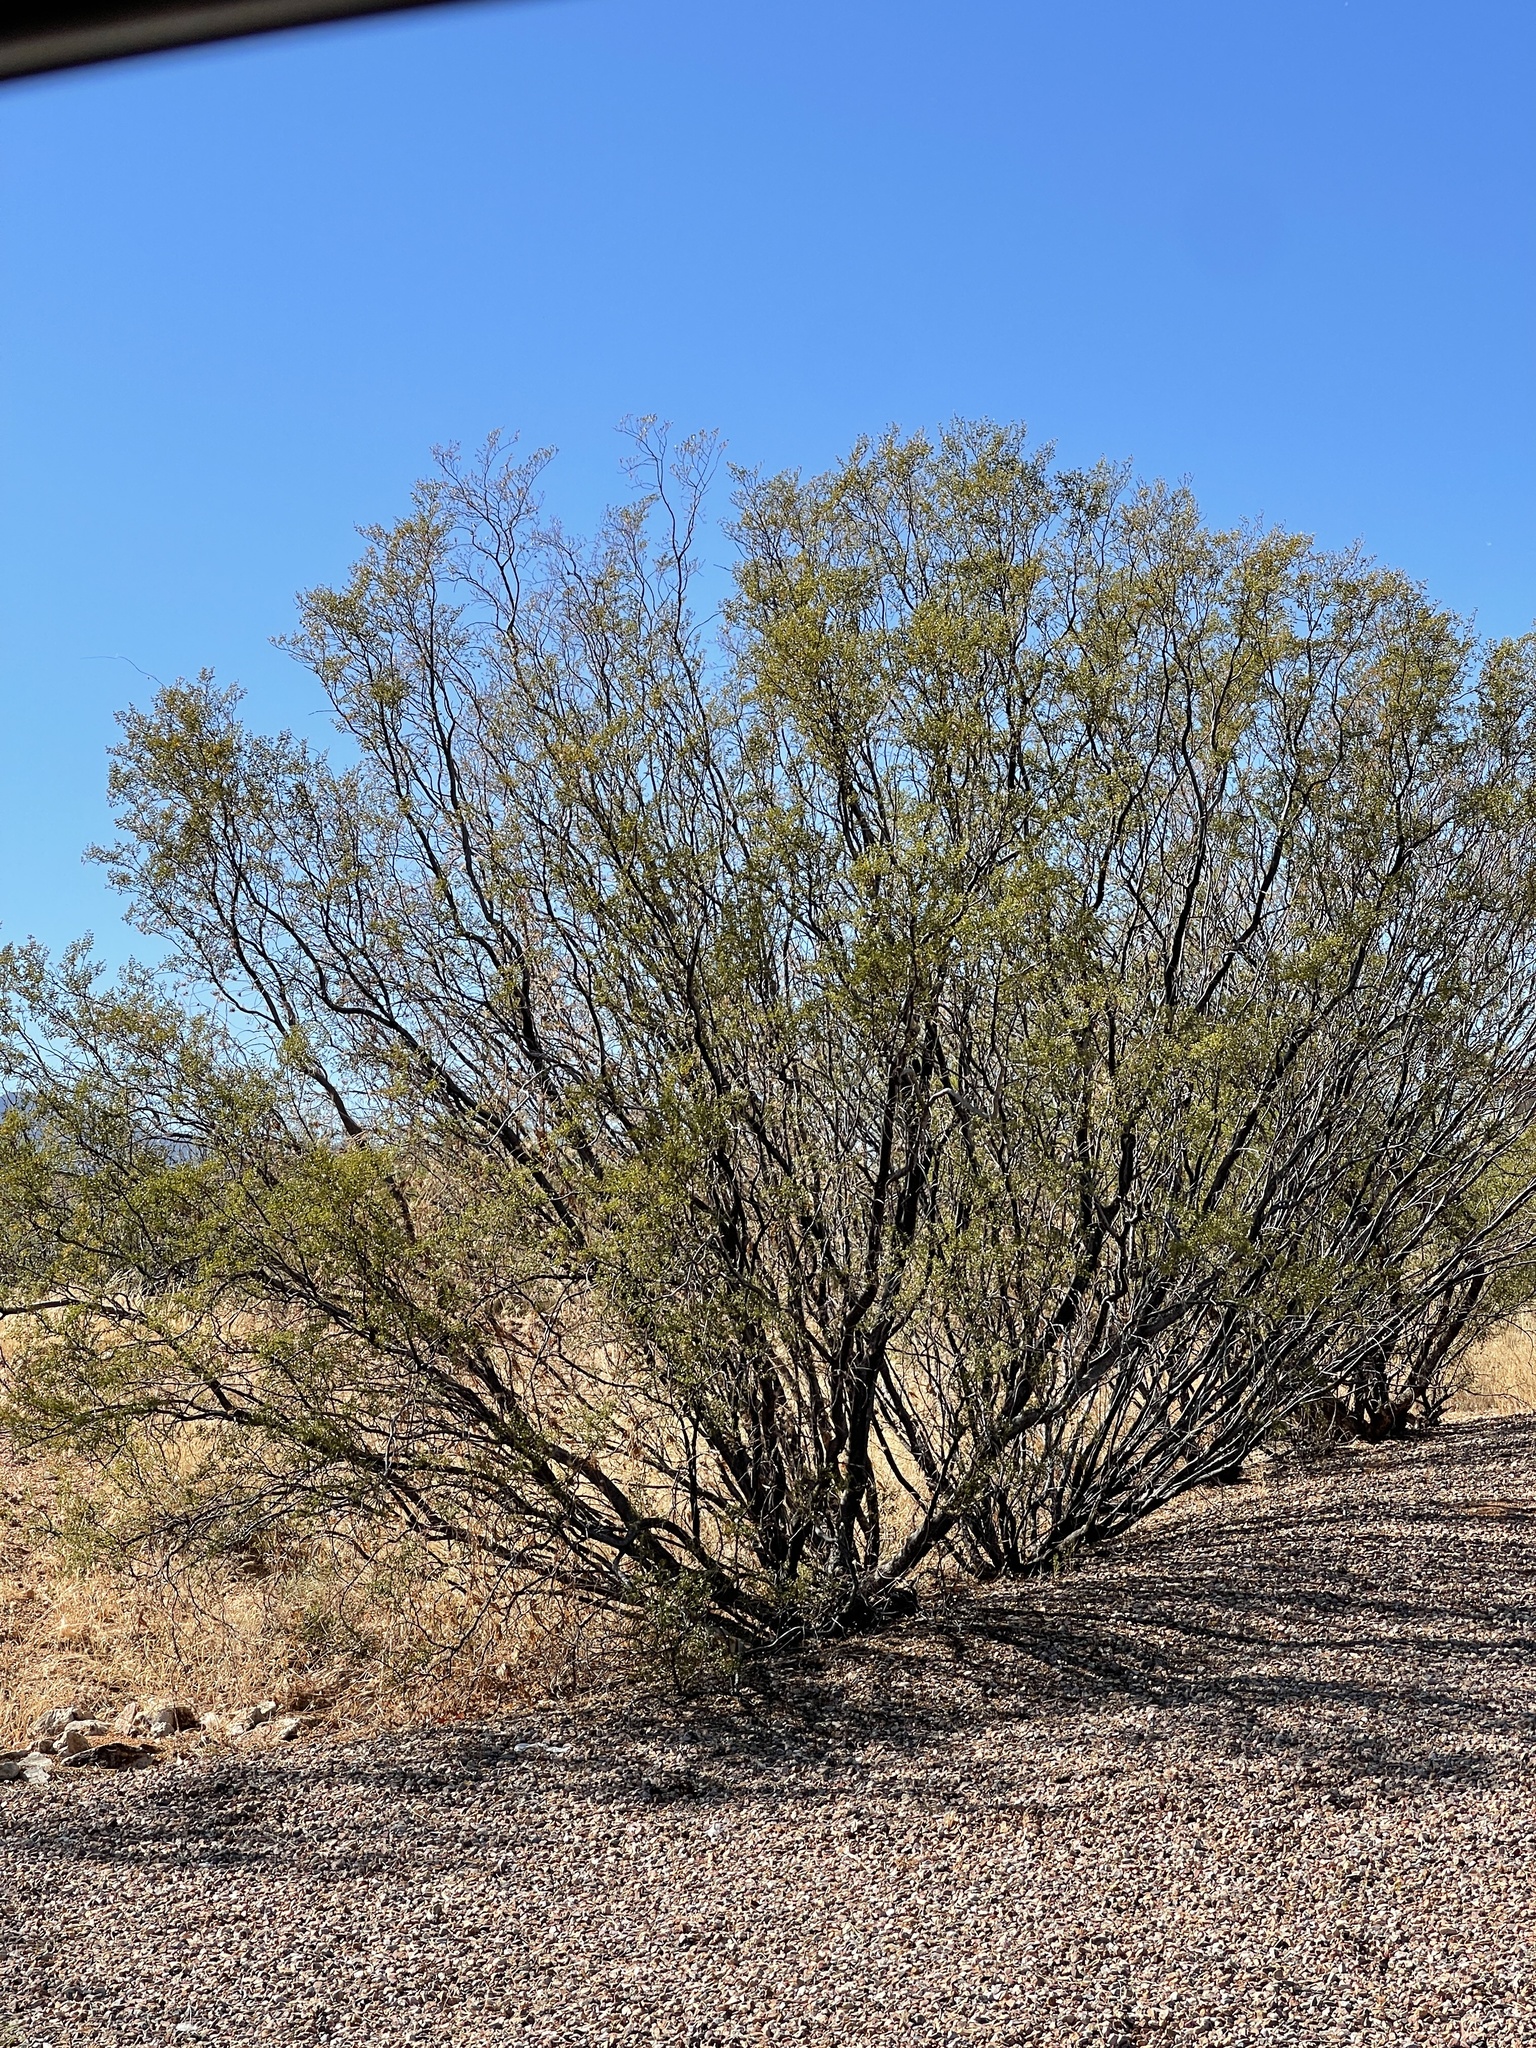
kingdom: Plantae
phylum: Tracheophyta
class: Magnoliopsida
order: Zygophyllales
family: Zygophyllaceae
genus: Larrea
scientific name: Larrea tridentata
